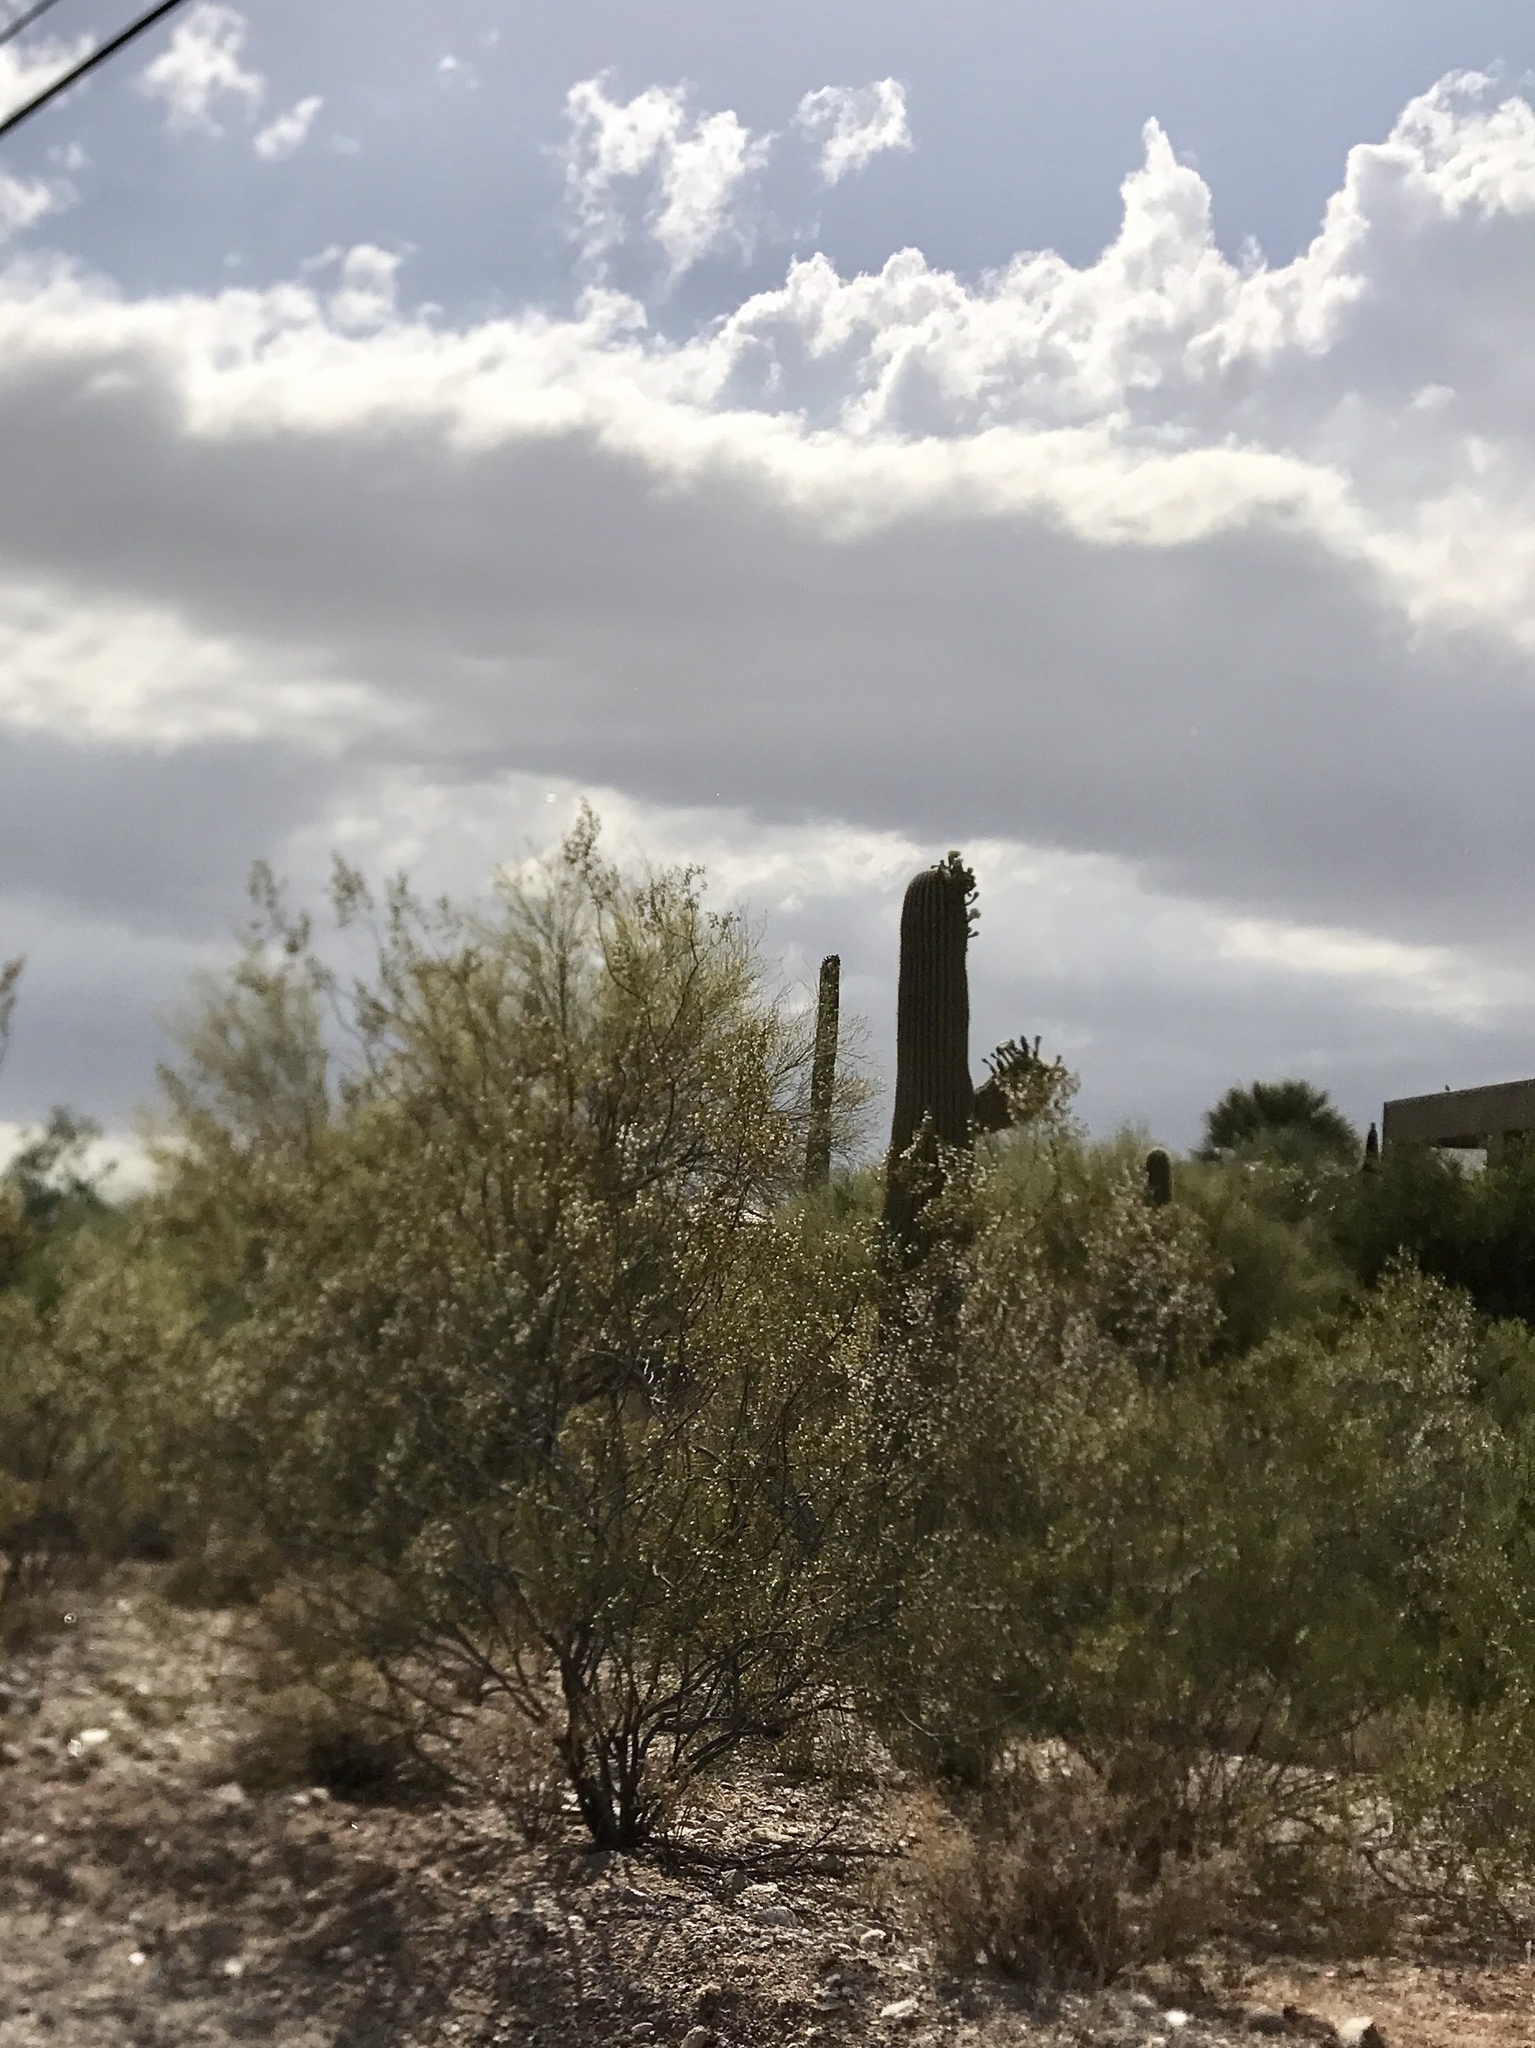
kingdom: Plantae
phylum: Tracheophyta
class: Magnoliopsida
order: Zygophyllales
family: Zygophyllaceae
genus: Larrea
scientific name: Larrea tridentata
